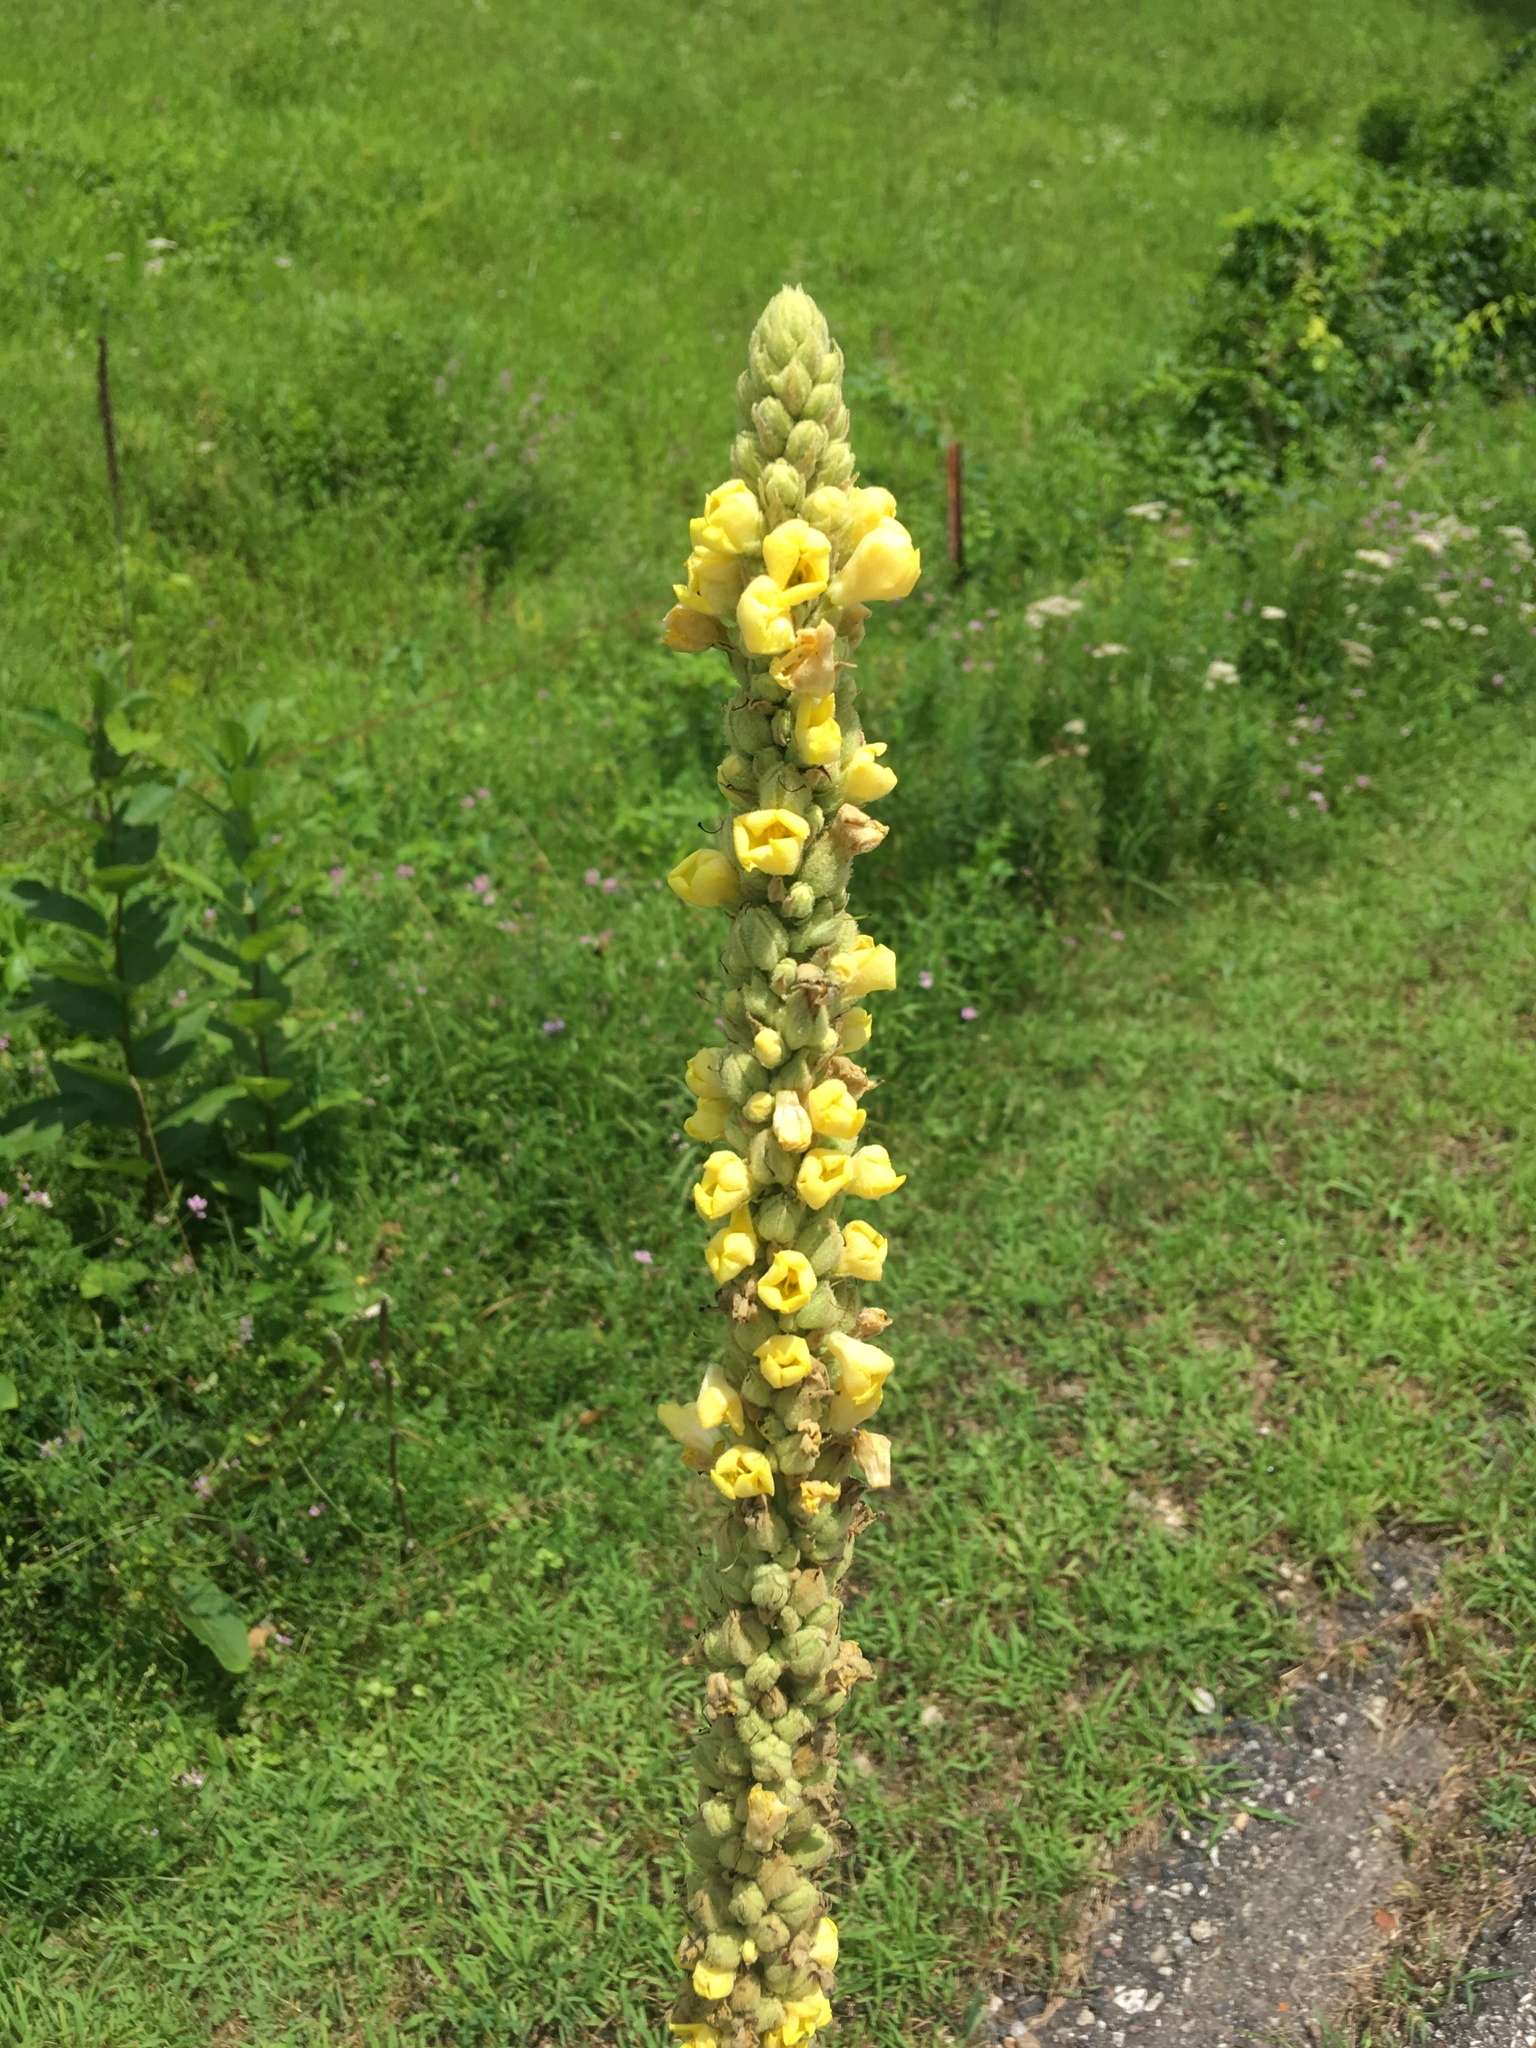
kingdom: Plantae
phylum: Tracheophyta
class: Magnoliopsida
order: Lamiales
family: Scrophulariaceae
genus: Verbascum
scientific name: Verbascum thapsus
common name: Common mullein
